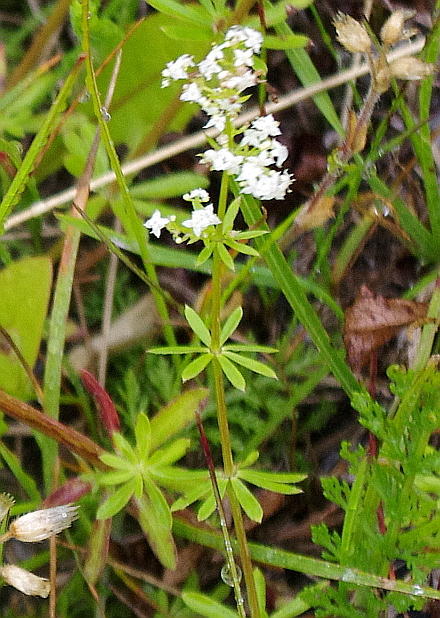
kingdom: Plantae
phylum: Tracheophyta
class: Magnoliopsida
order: Gentianales
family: Rubiaceae
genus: Galium
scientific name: Galium mollugo
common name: Hedge bedstraw
